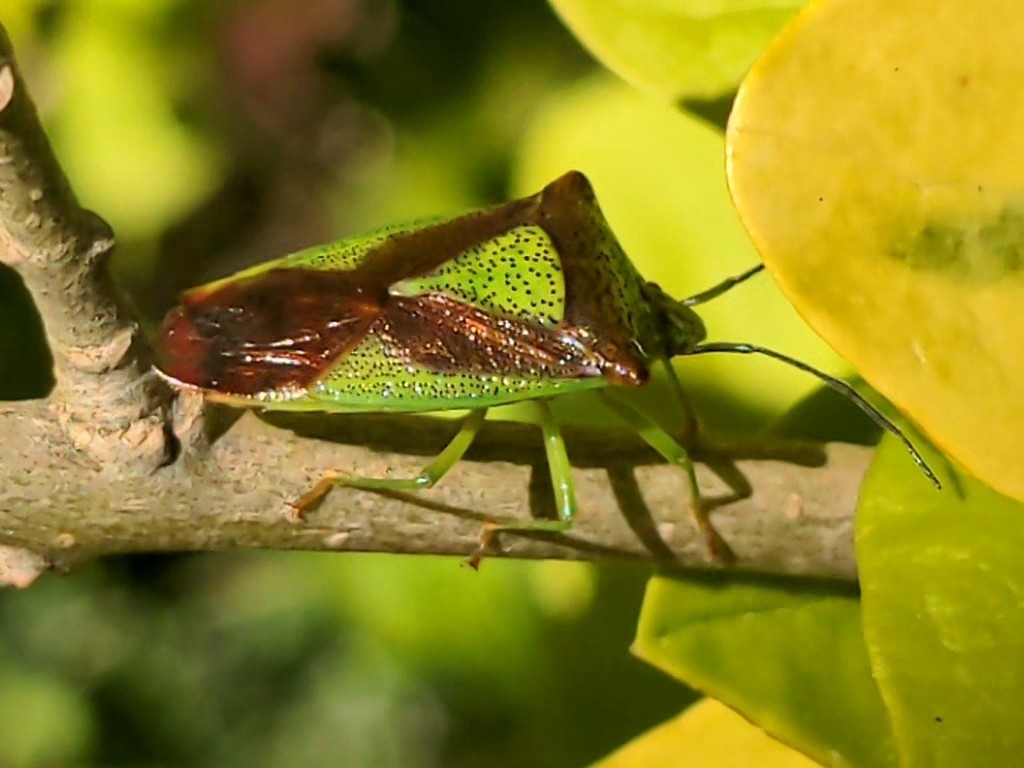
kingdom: Animalia
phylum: Arthropoda
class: Insecta
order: Hemiptera
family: Acanthosomatidae
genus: Acanthosoma
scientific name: Acanthosoma haemorrhoidale
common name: Hawthorn shieldbug
